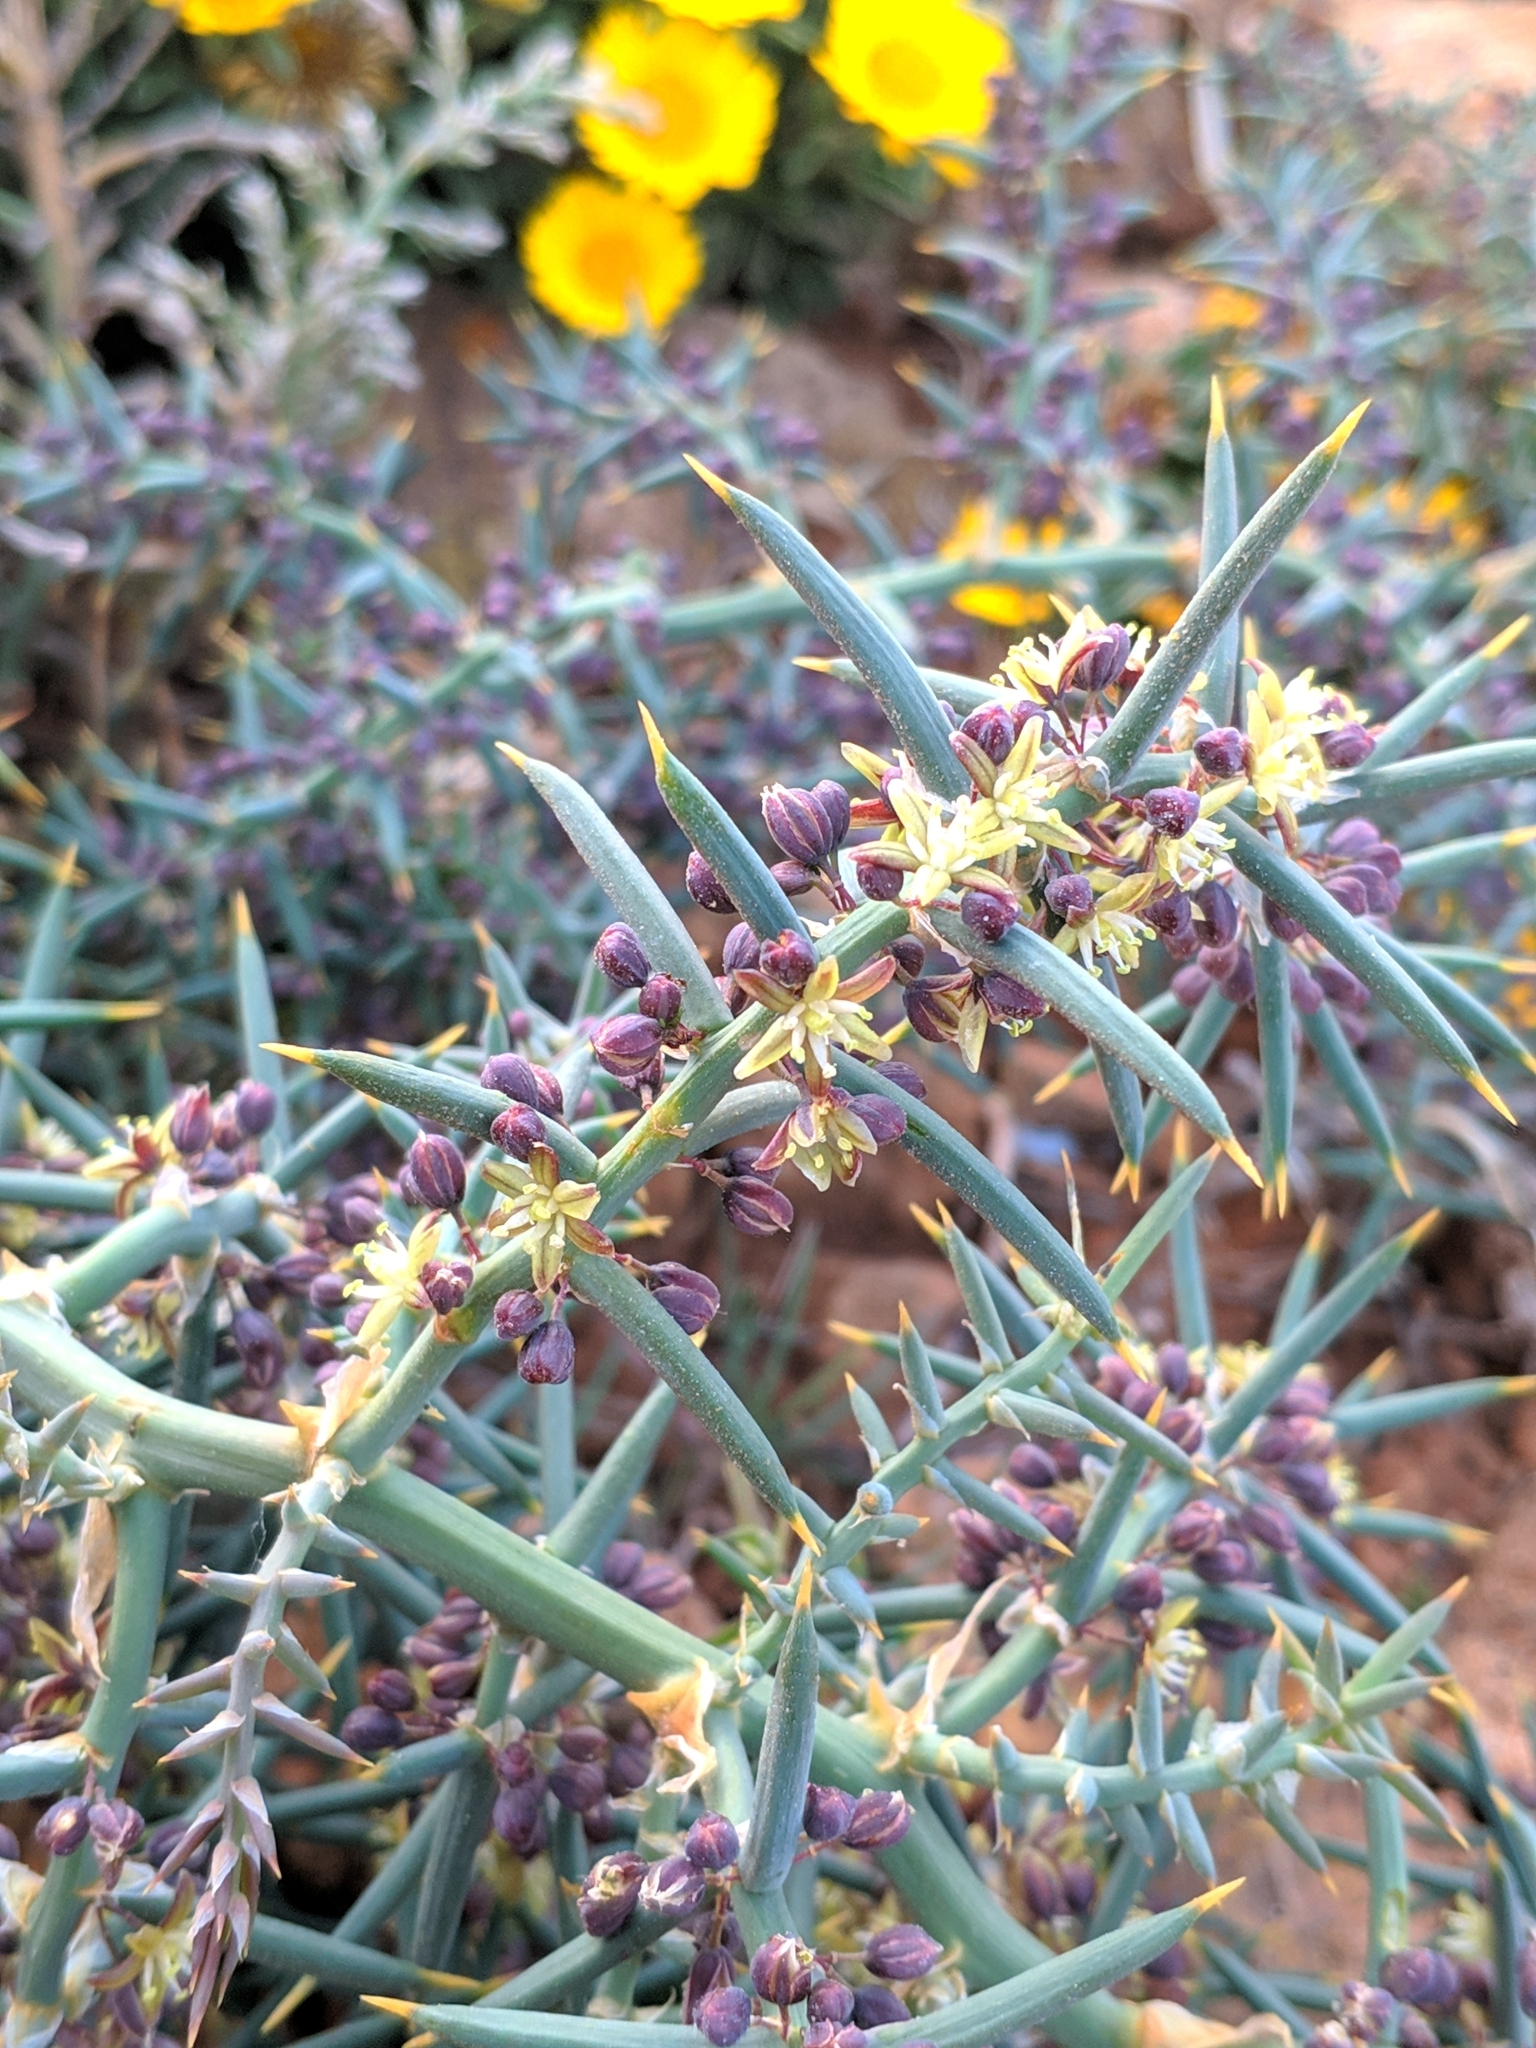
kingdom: Plantae
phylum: Tracheophyta
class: Liliopsida
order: Asparagales
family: Asparagaceae
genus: Asparagus
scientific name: Asparagus horridus
